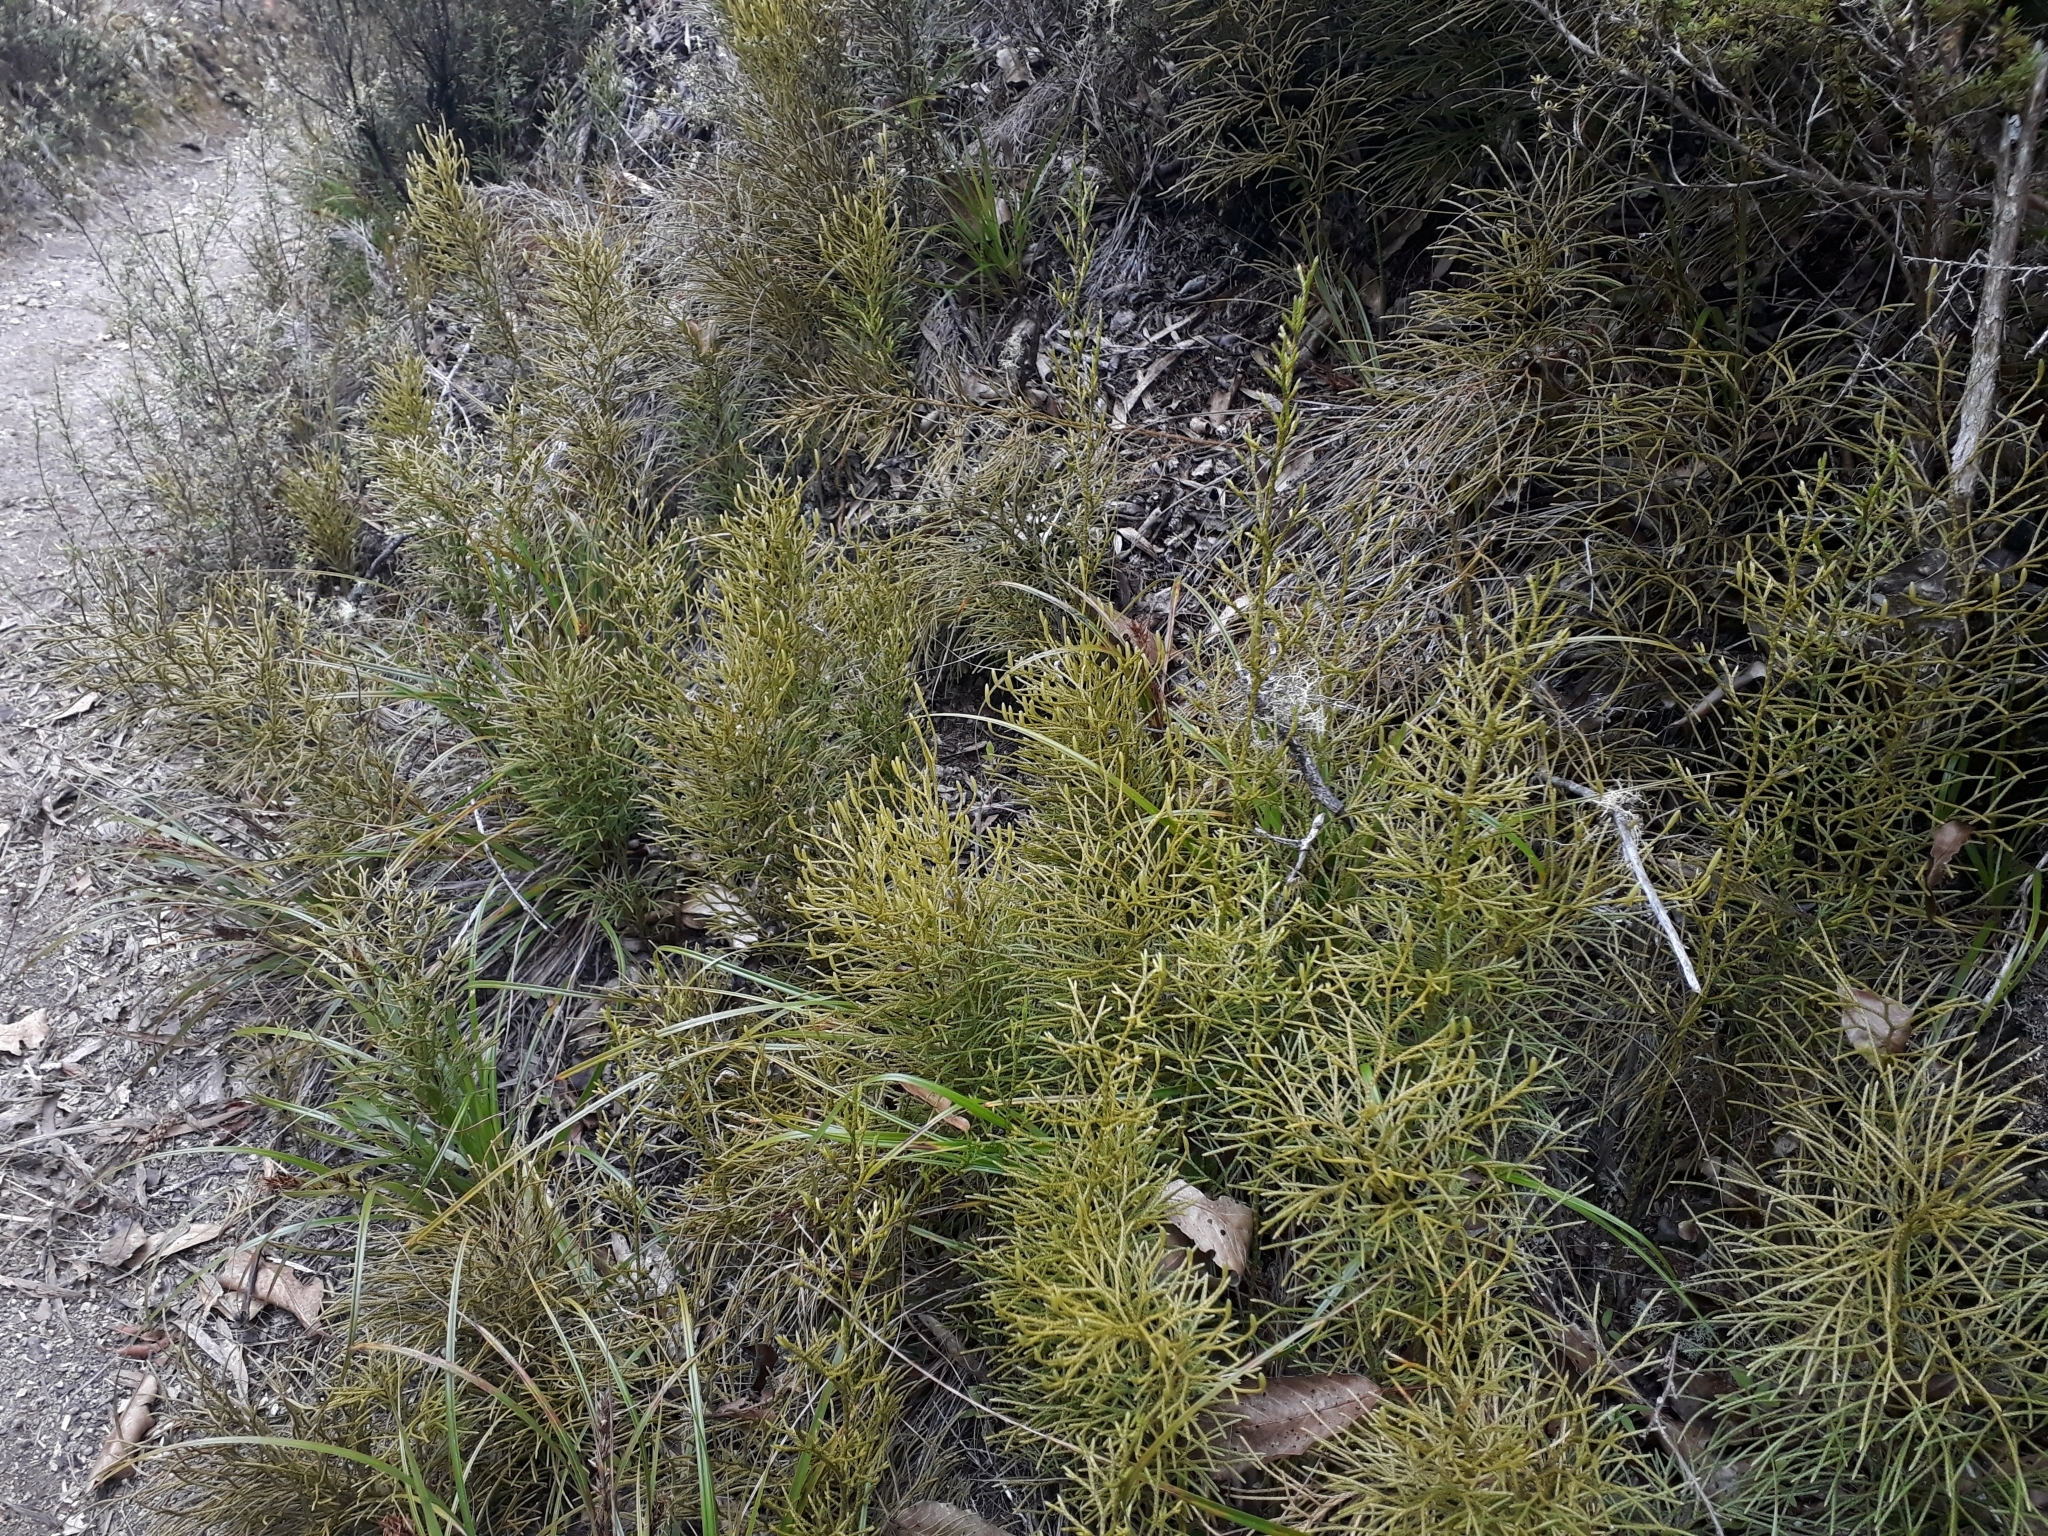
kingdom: Plantae
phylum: Tracheophyta
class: Lycopodiopsida
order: Lycopodiales
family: Lycopodiaceae
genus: Pseudolycopodium
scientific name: Pseudolycopodium densum
